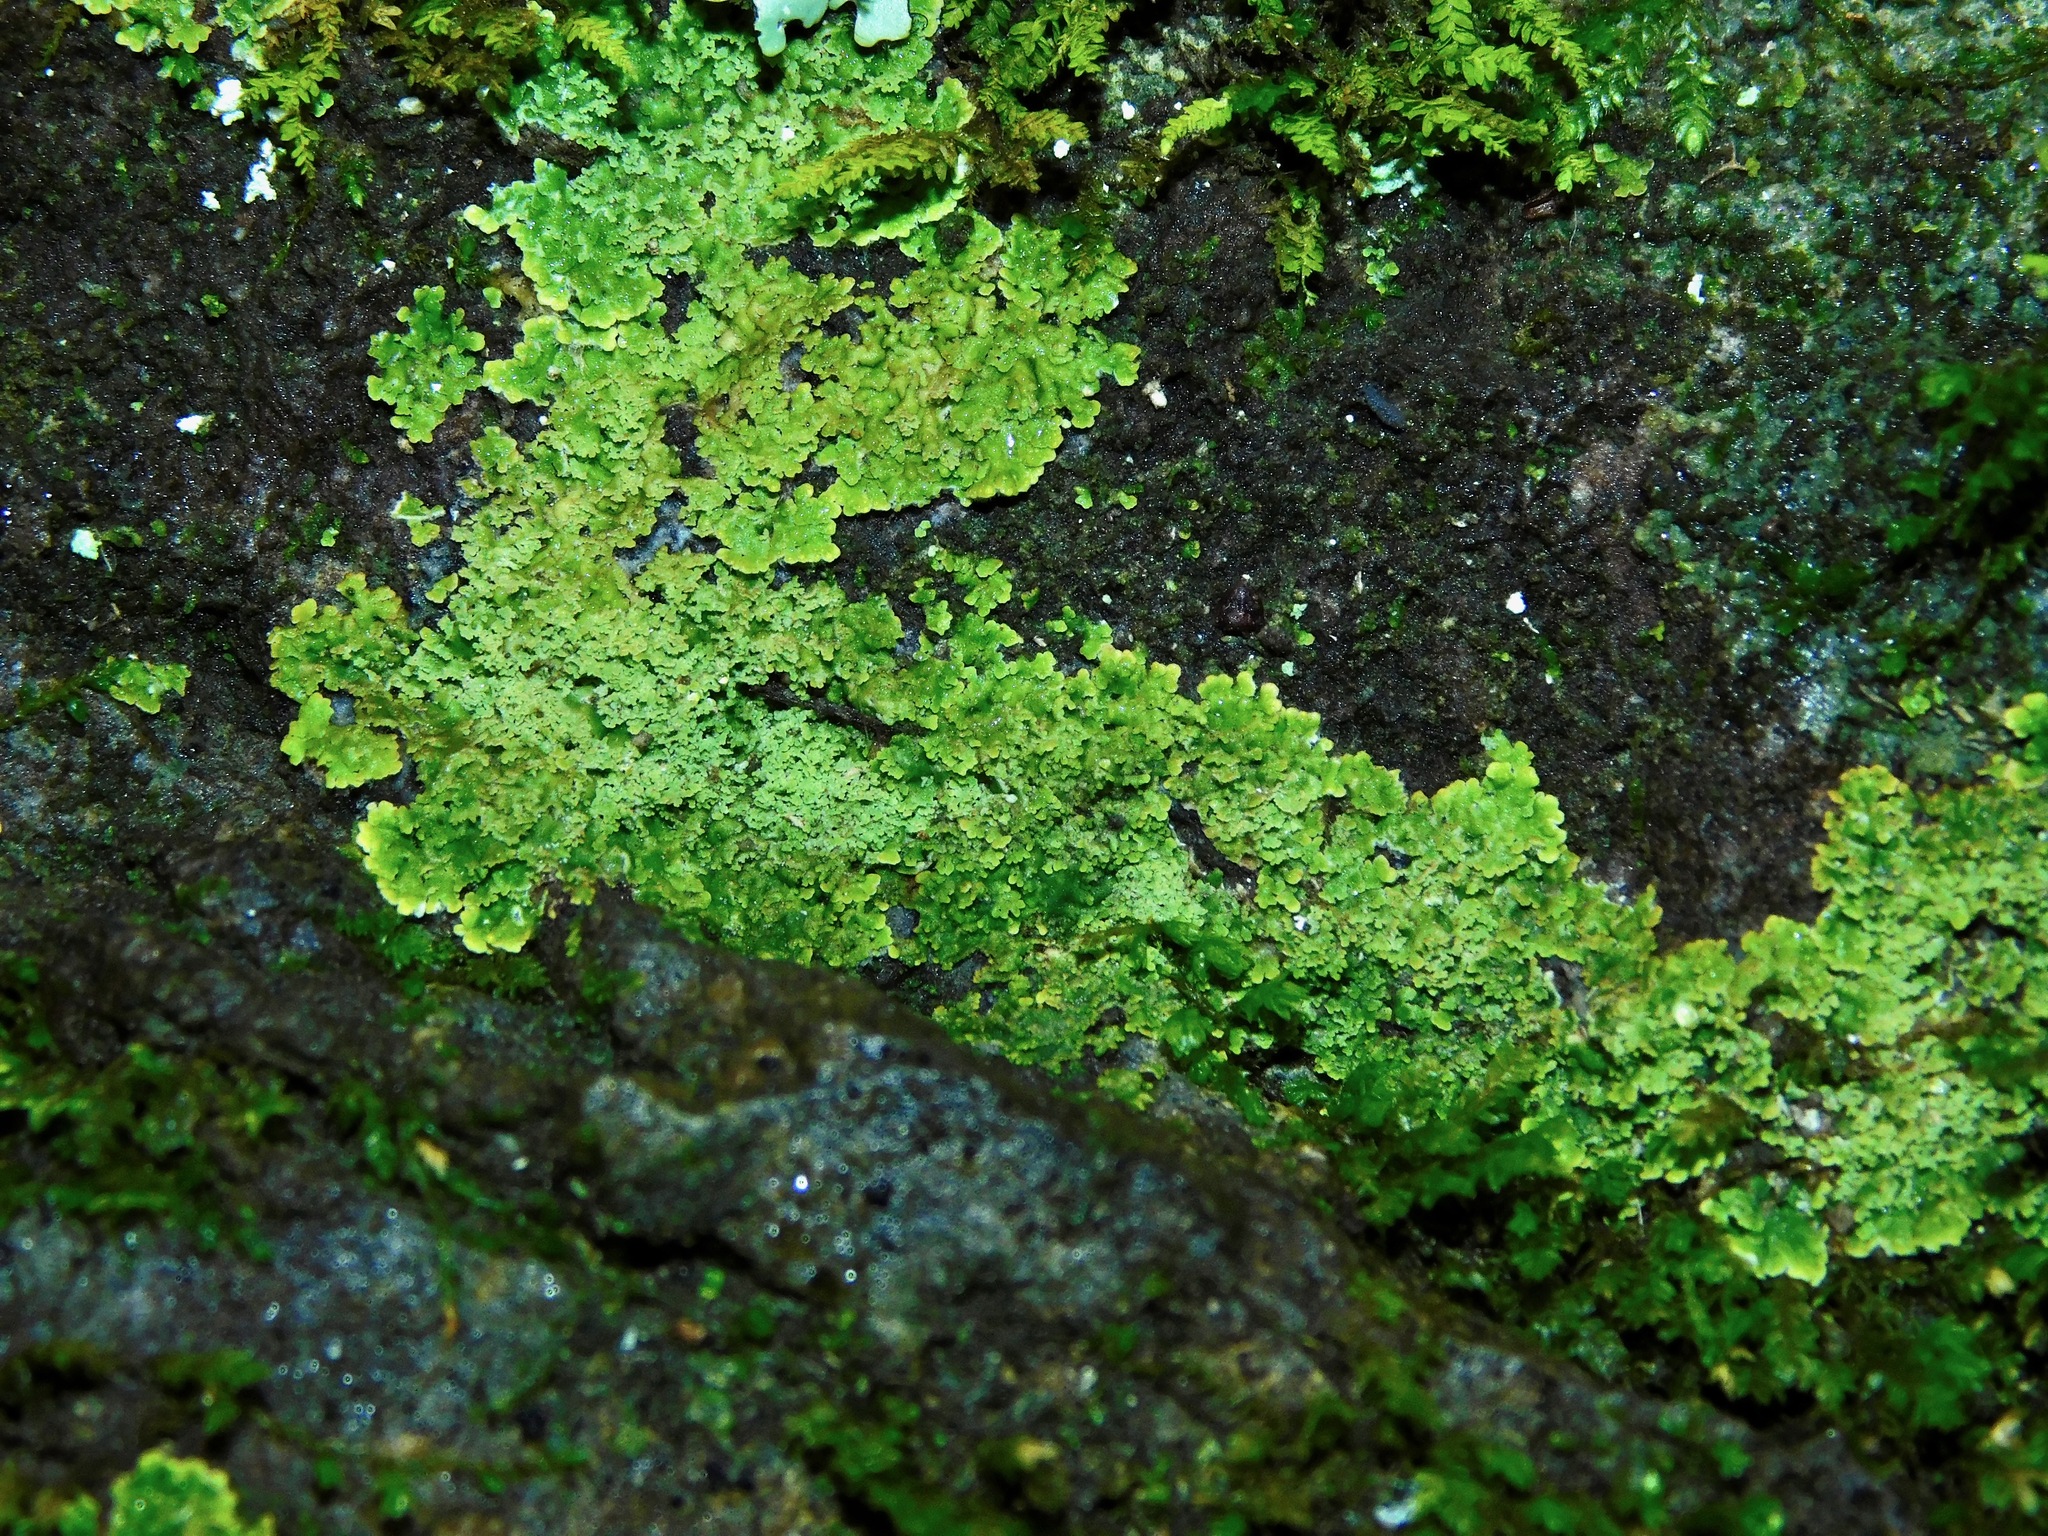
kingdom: Fungi
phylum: Ascomycota
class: Lecanoromycetes
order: Lecanorales
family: Cladoniaceae
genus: Cladonia
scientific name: Cladonia petrophila
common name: Rock-loving cladonia
